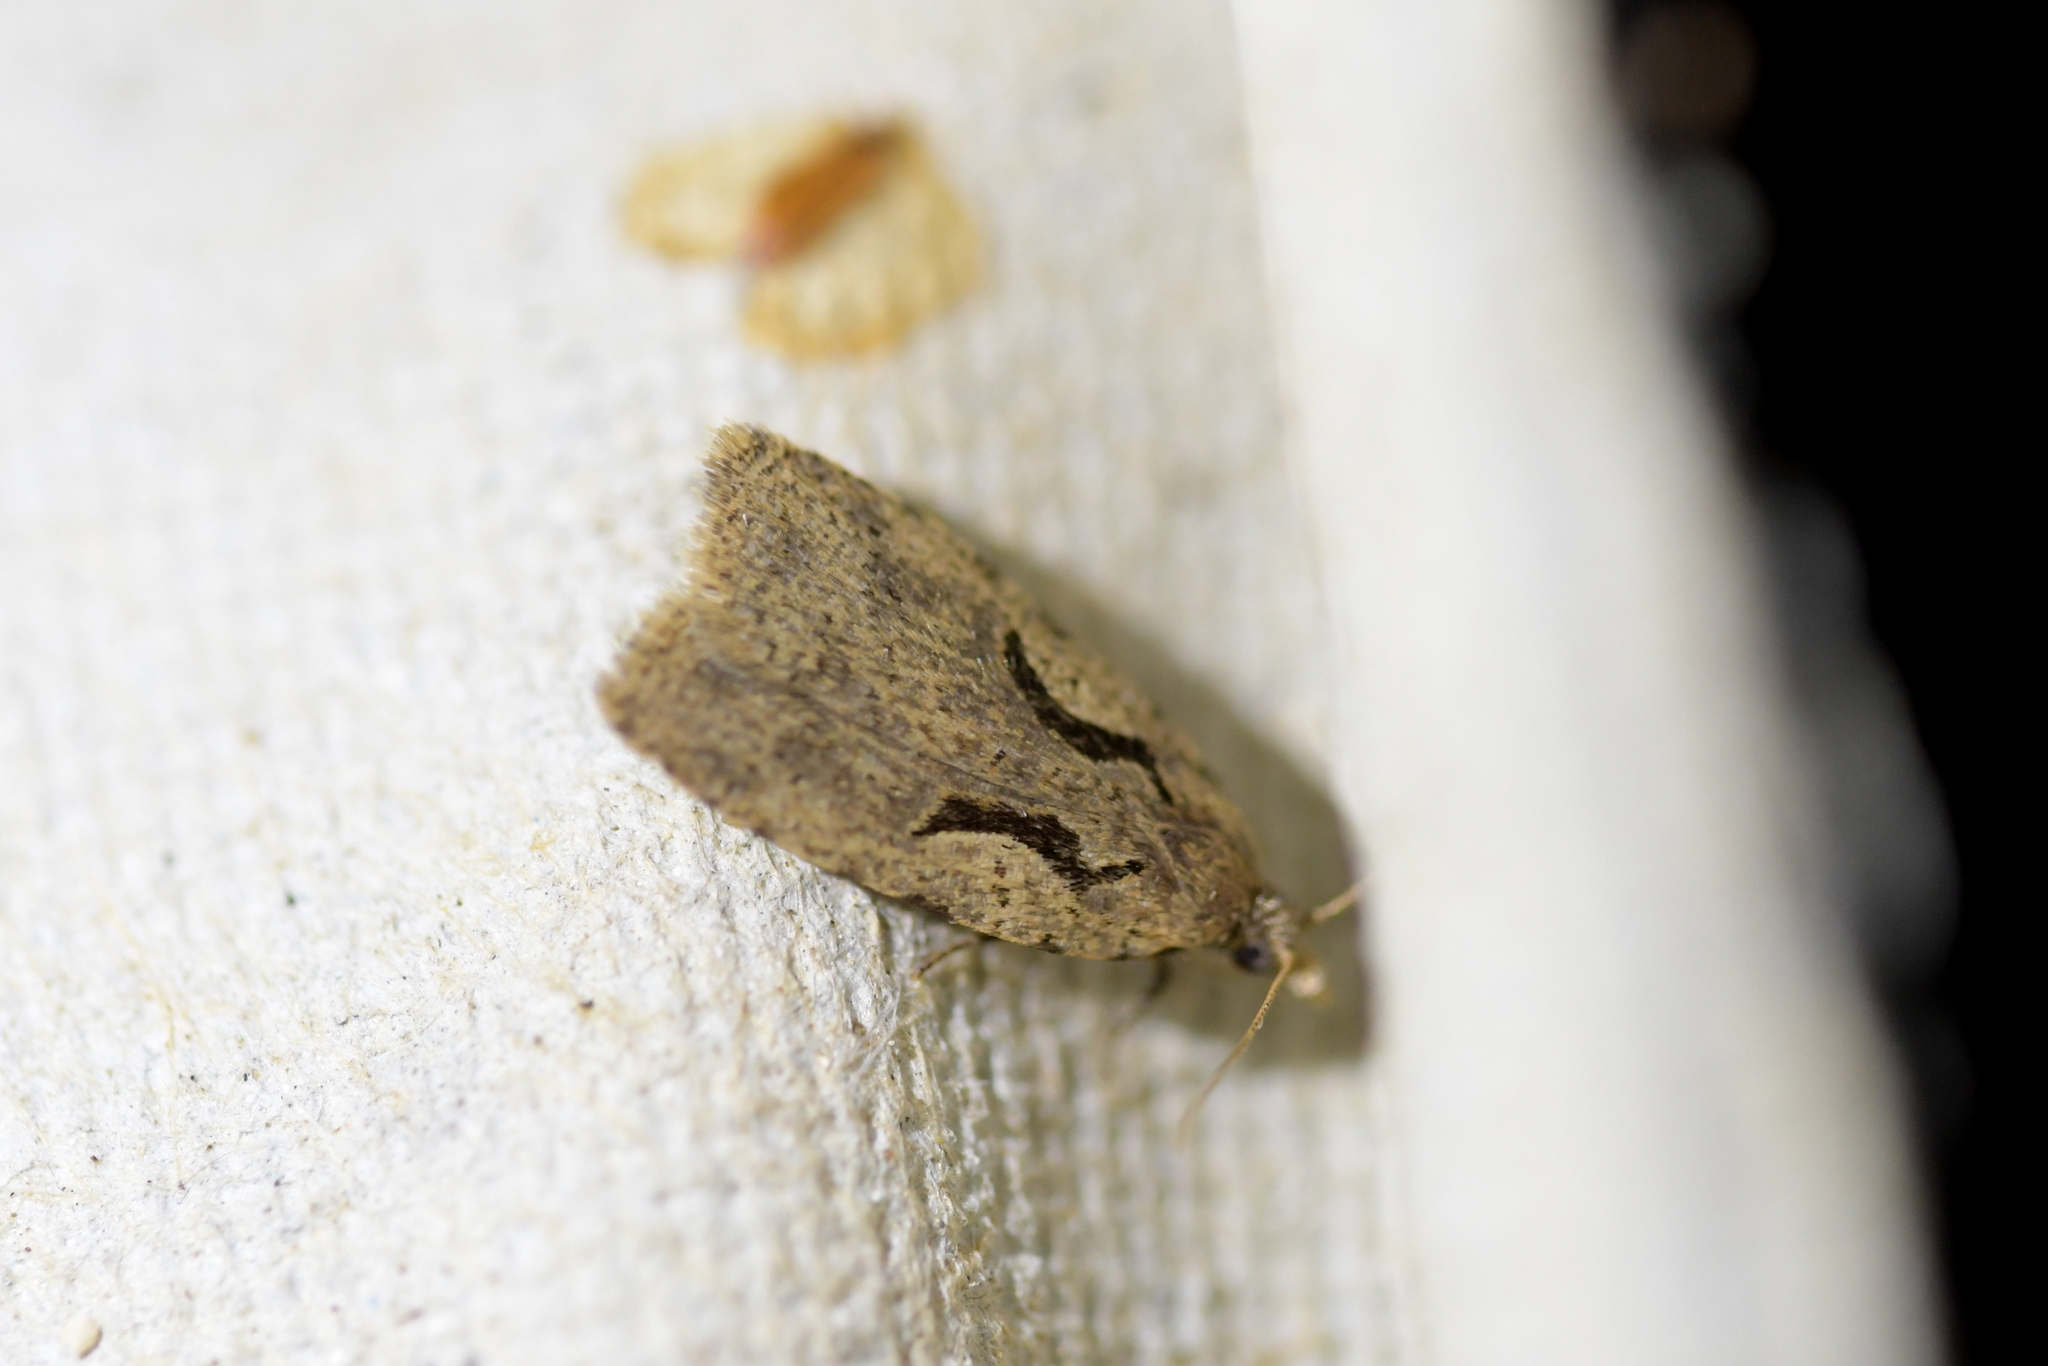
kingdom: Animalia
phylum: Arthropoda
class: Insecta
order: Lepidoptera
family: Tortricidae
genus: Cnephasia
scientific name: Cnephasia jactatana
